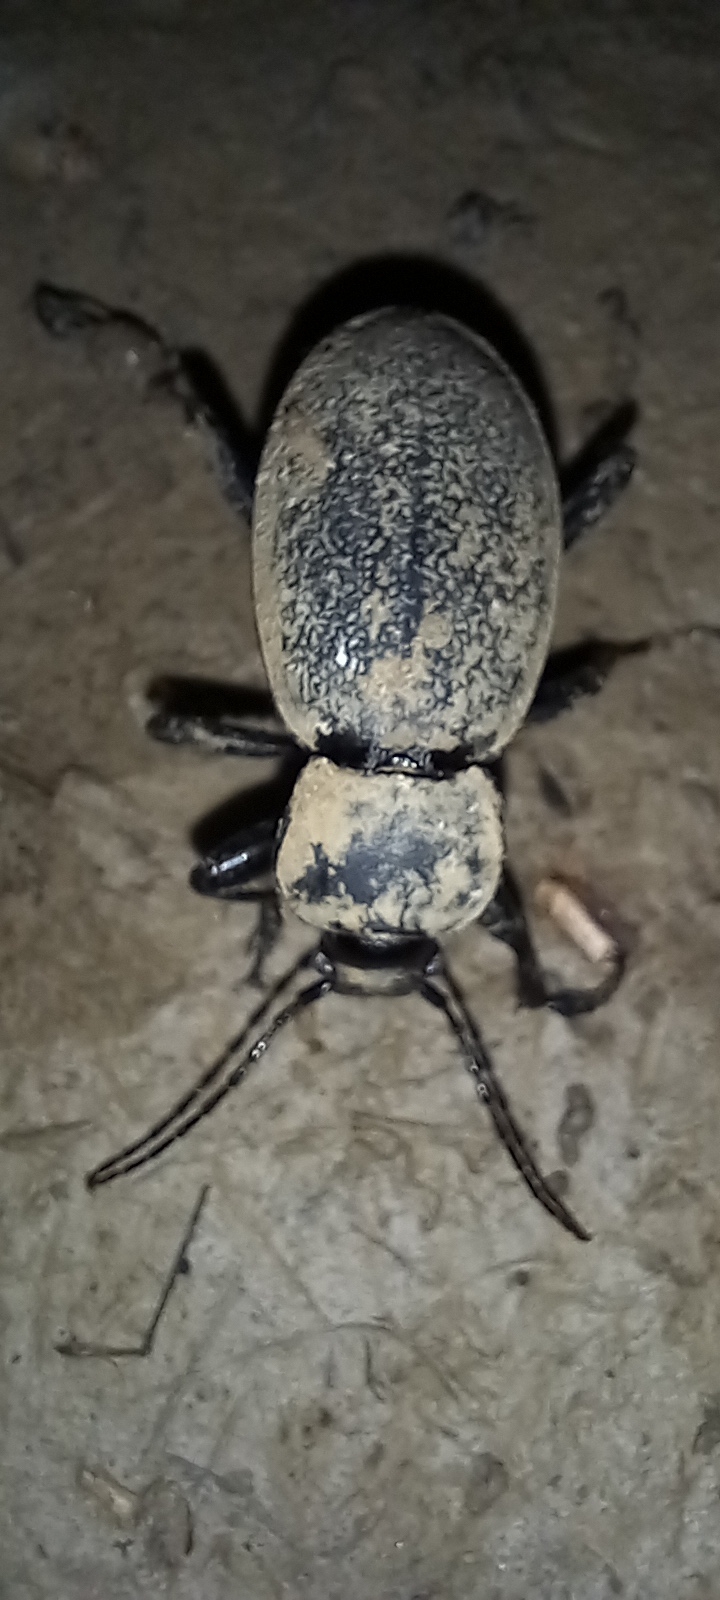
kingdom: Animalia
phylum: Arthropoda
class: Insecta
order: Coleoptera
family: Carabidae
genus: Carabus
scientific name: Carabus coriaceus
